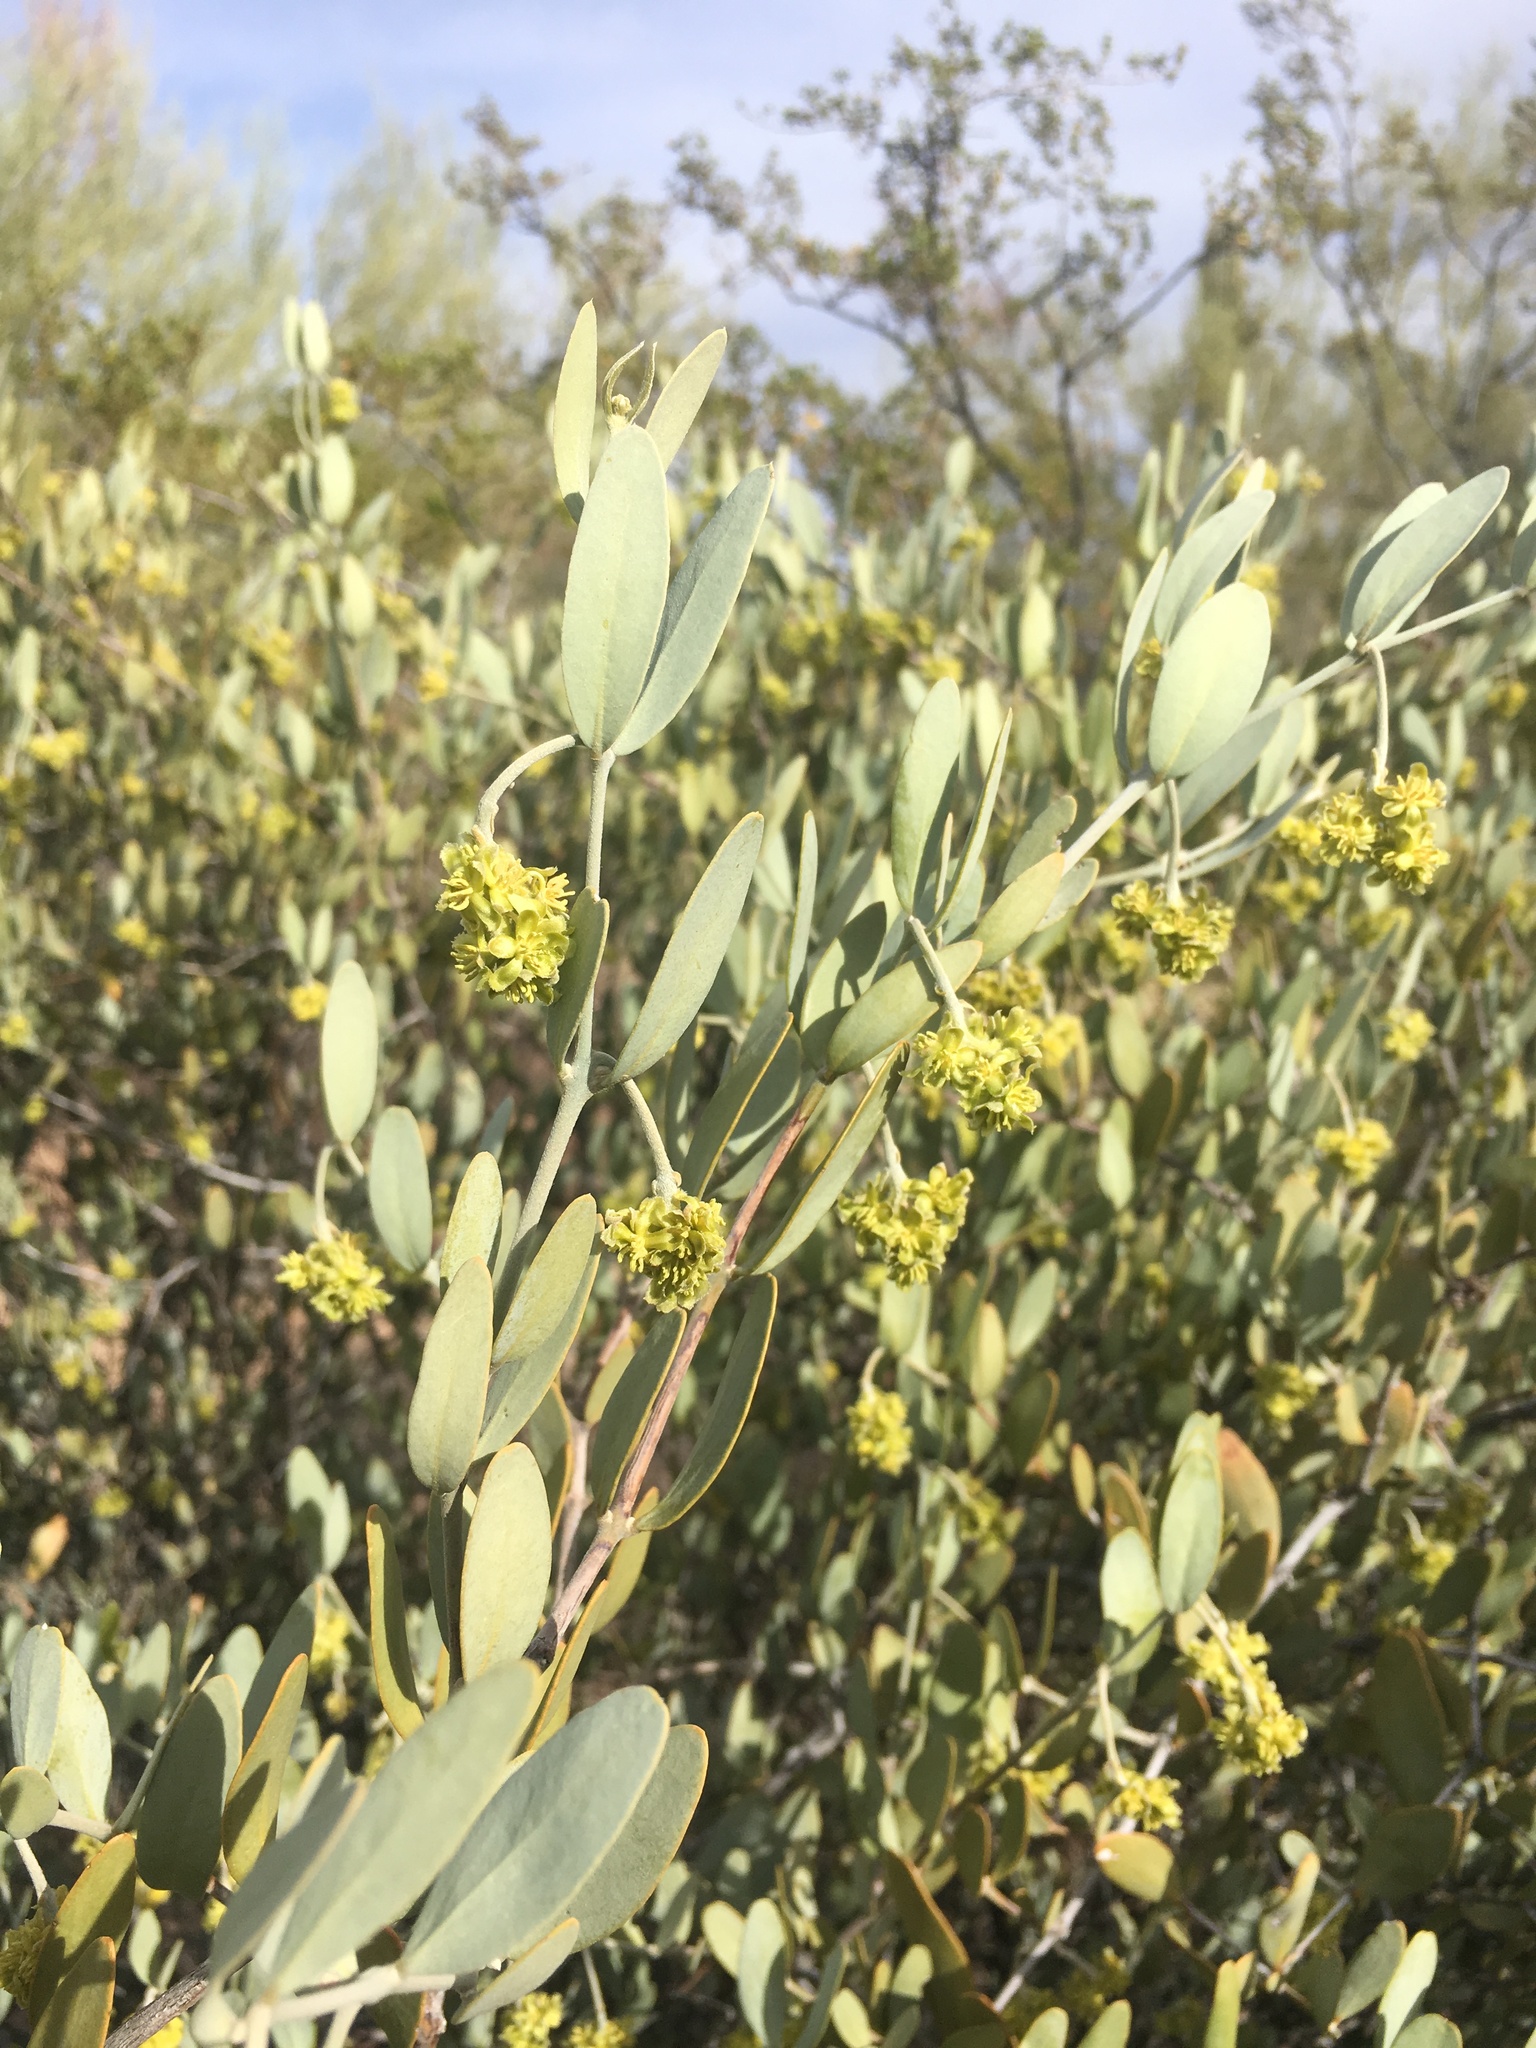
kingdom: Plantae
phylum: Tracheophyta
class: Magnoliopsida
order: Caryophyllales
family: Simmondsiaceae
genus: Simmondsia
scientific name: Simmondsia chinensis
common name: Jojoba
